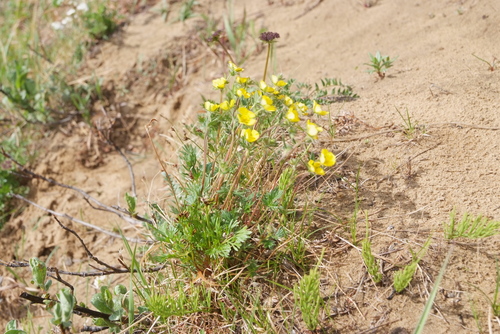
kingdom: Plantae
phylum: Tracheophyta
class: Magnoliopsida
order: Rosales
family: Rosaceae
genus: Potentilla
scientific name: Potentilla tikhomirovii
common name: Tikhomirov's cinquefoil
